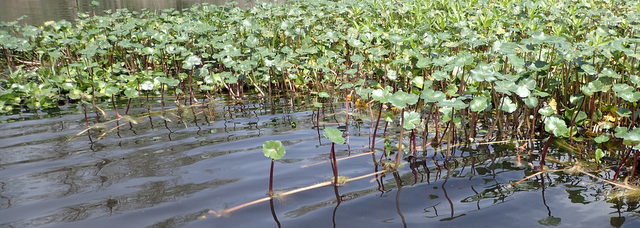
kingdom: Plantae
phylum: Tracheophyta
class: Magnoliopsida
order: Apiales
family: Araliaceae
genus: Hydrocotyle
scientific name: Hydrocotyle ranunculoides
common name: Floating pennywort
